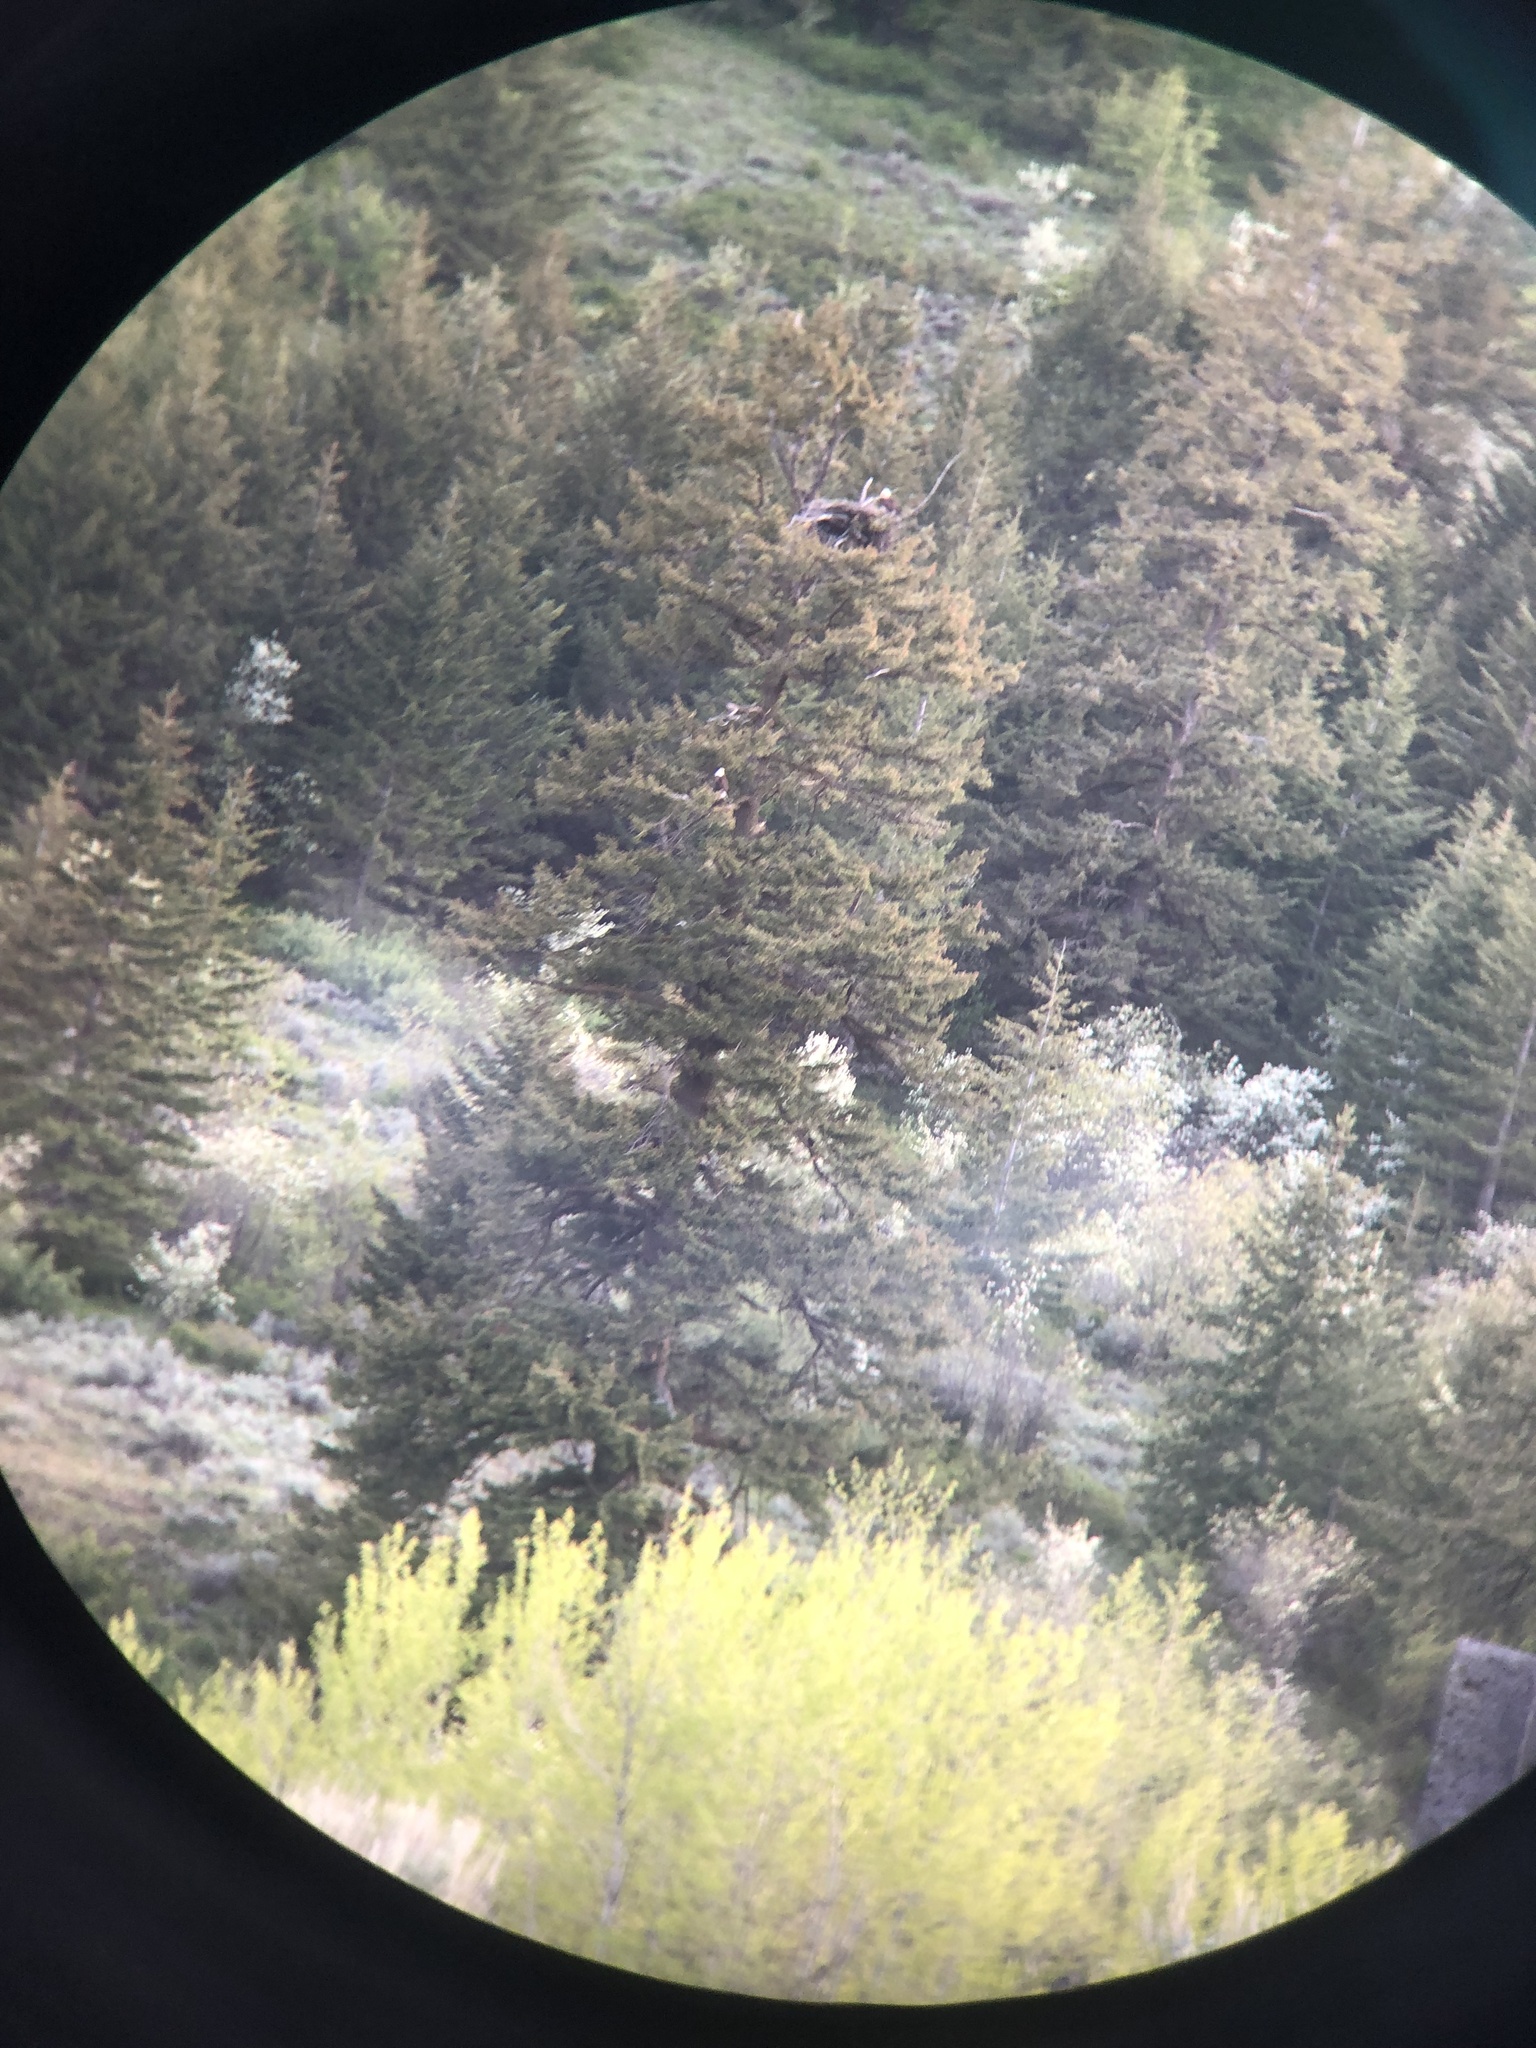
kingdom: Animalia
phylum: Chordata
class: Aves
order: Accipitriformes
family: Accipitridae
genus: Haliaeetus
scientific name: Haliaeetus leucocephalus
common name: Bald eagle
